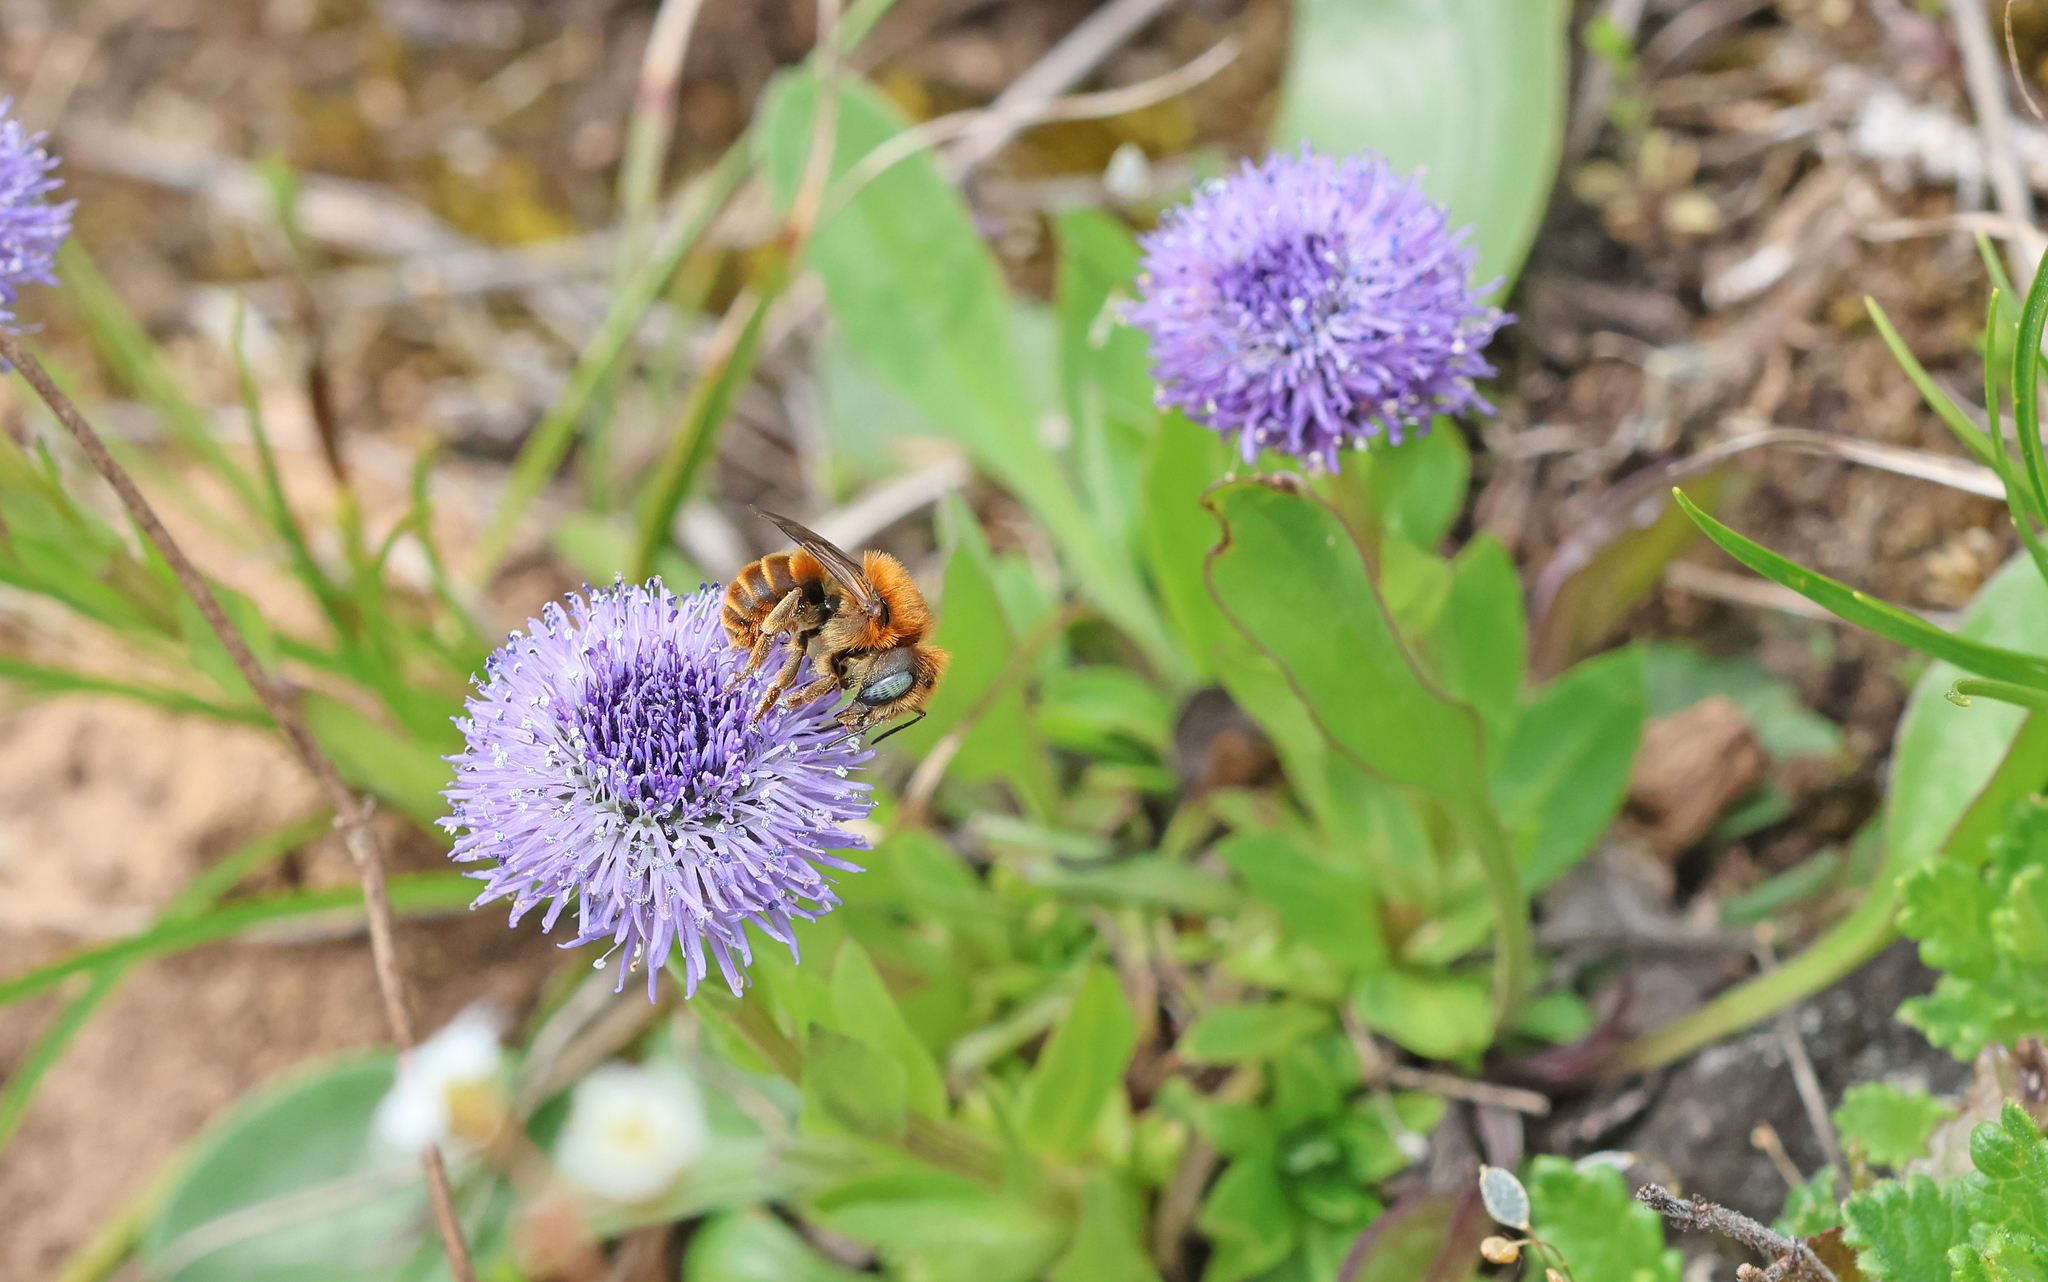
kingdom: Animalia
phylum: Arthropoda
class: Insecta
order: Hymenoptera
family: Megachilidae
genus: Osmia
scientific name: Osmia aurulenta
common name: Gold-fringed mason bee
